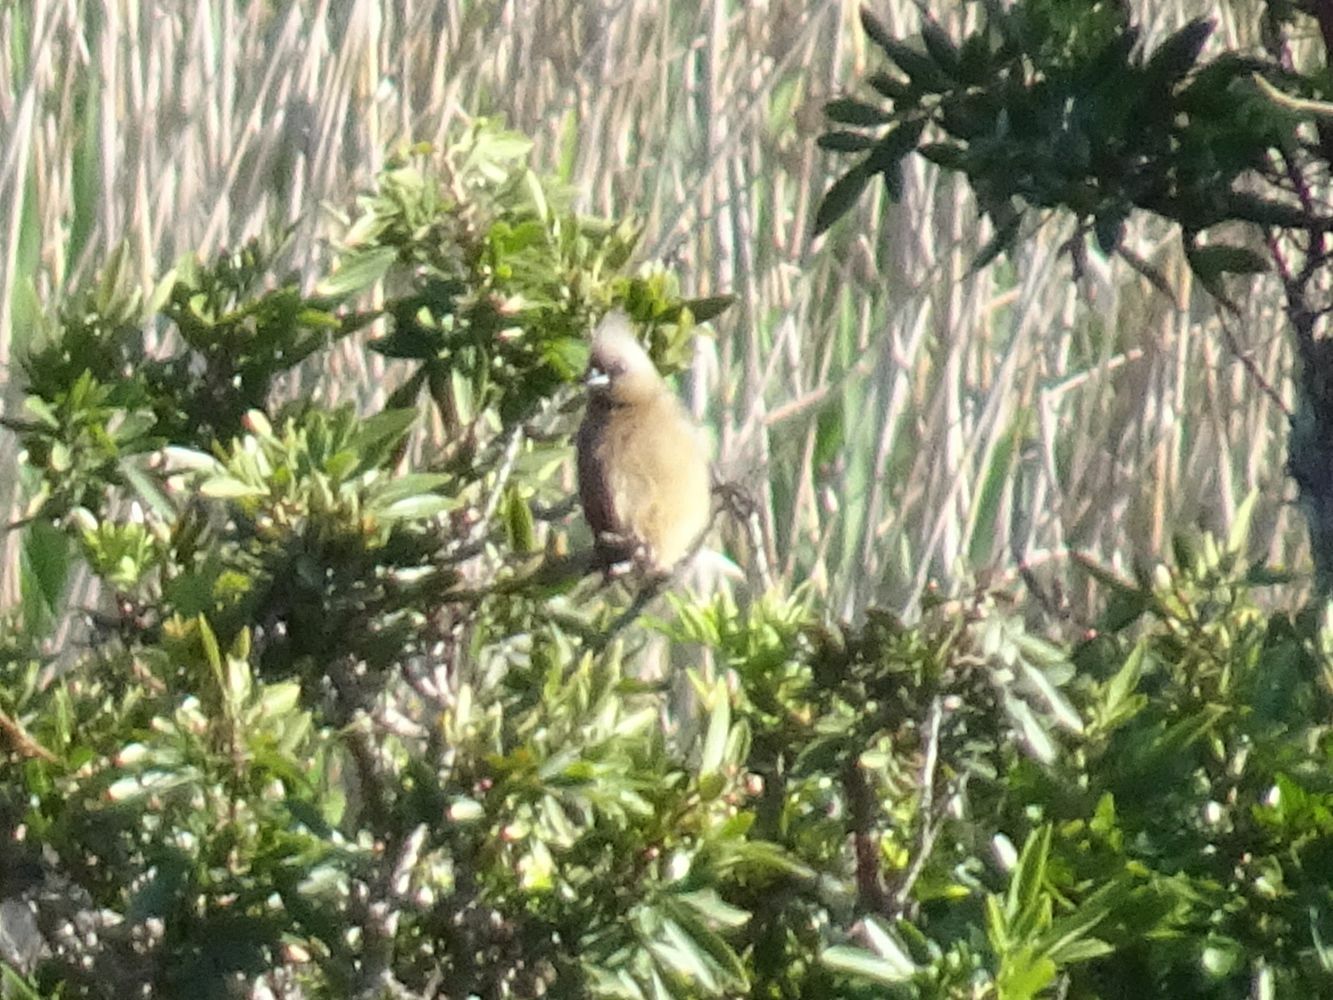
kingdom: Animalia
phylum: Chordata
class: Aves
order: Coliiformes
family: Coliidae
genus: Colius
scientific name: Colius striatus
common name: Speckled mousebird
